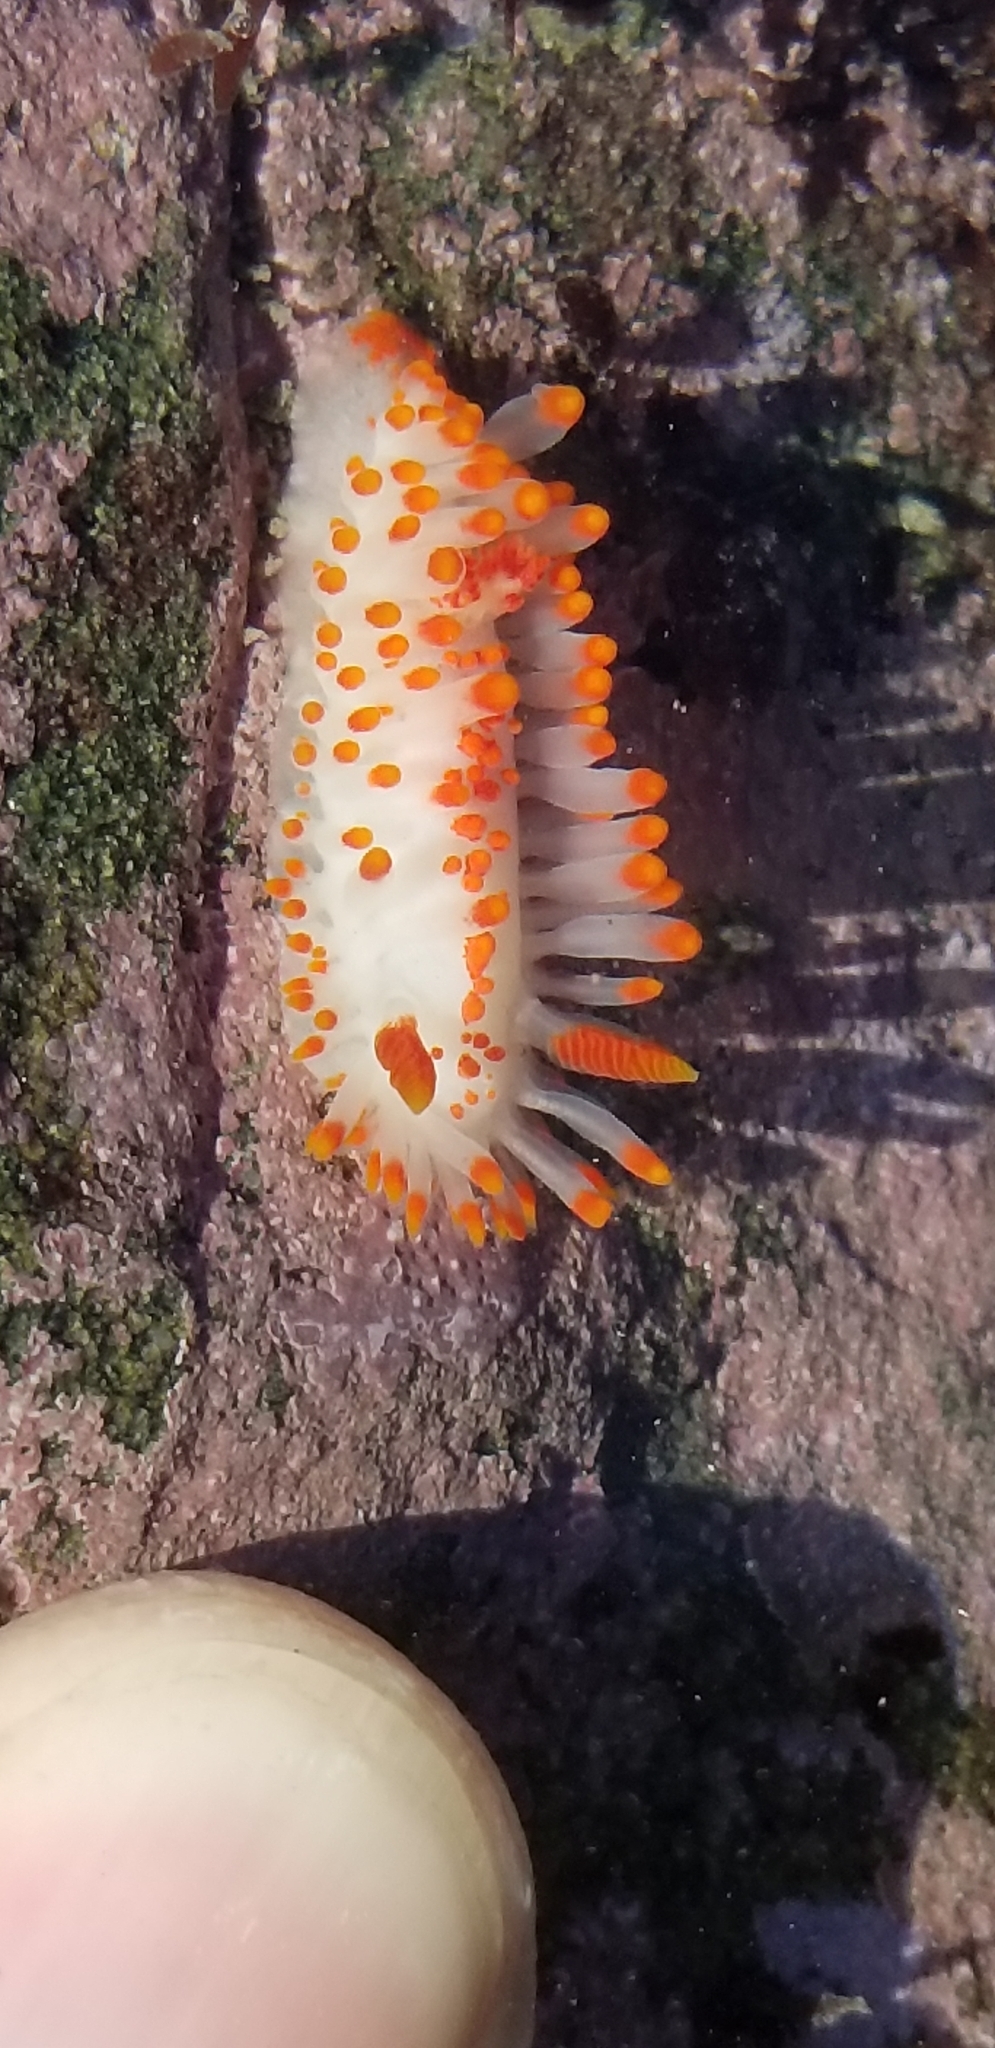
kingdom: Animalia
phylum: Mollusca
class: Gastropoda
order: Nudibranchia
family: Polyceridae
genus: Limacia
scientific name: Limacia mcdonaldi
